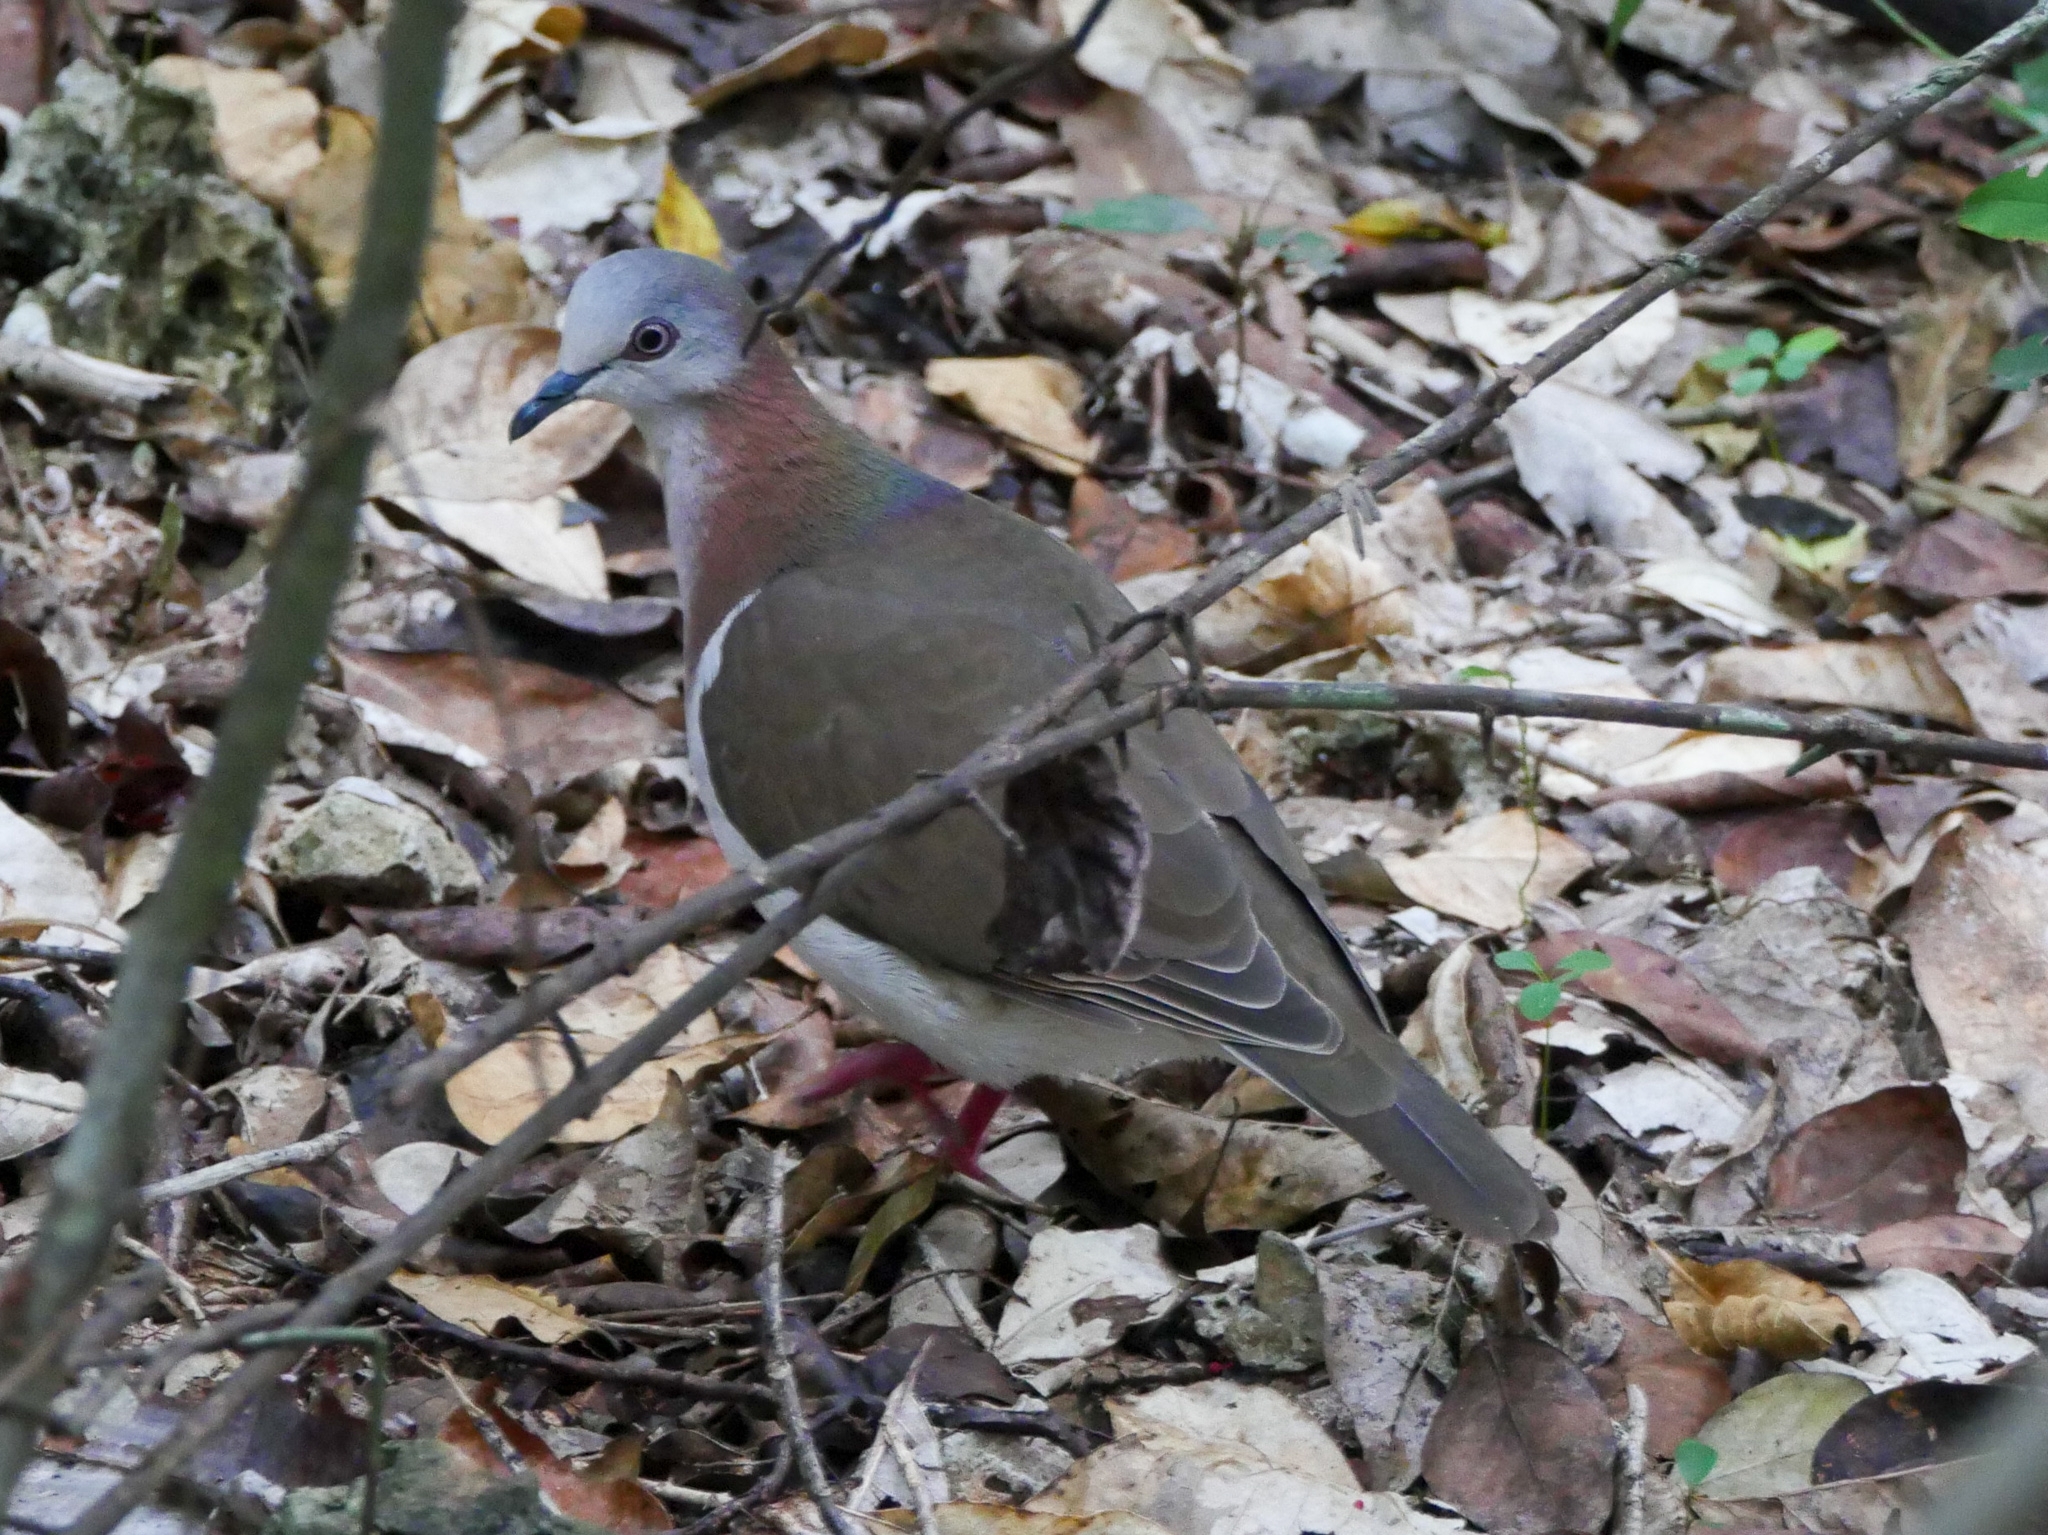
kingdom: Animalia
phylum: Chordata
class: Aves
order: Columbiformes
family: Columbidae
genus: Leptotila
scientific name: Leptotila jamaicensis
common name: Caribbean dove
